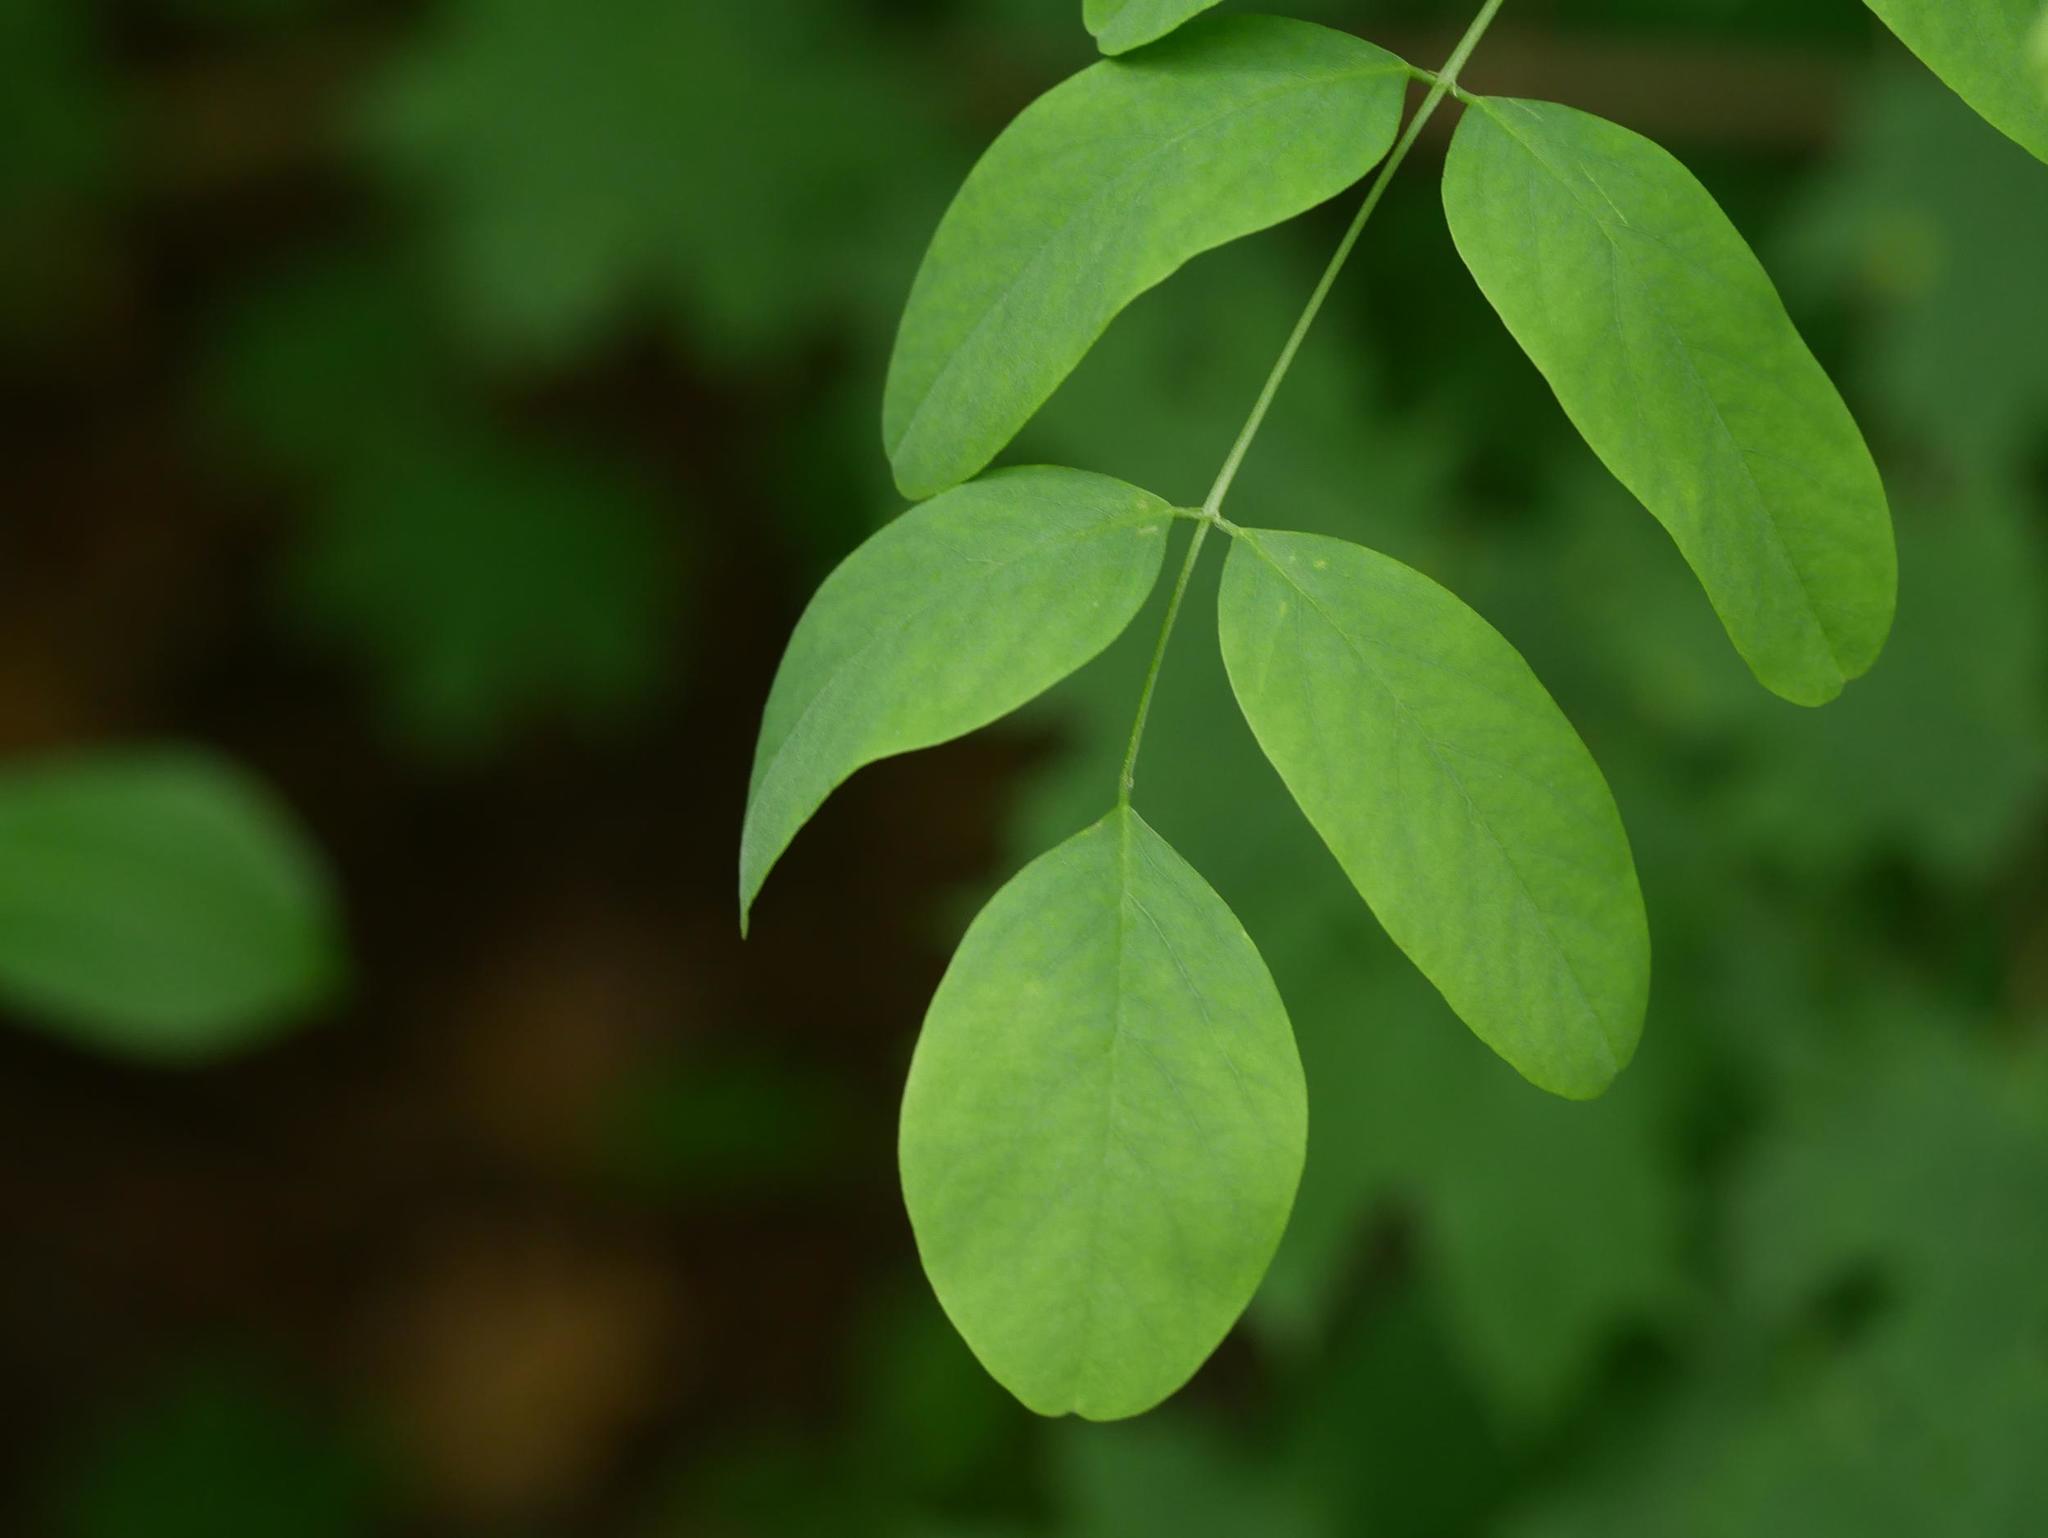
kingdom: Plantae
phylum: Tracheophyta
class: Magnoliopsida
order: Fabales
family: Fabaceae
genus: Robinia
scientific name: Robinia pseudoacacia
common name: Black locust
